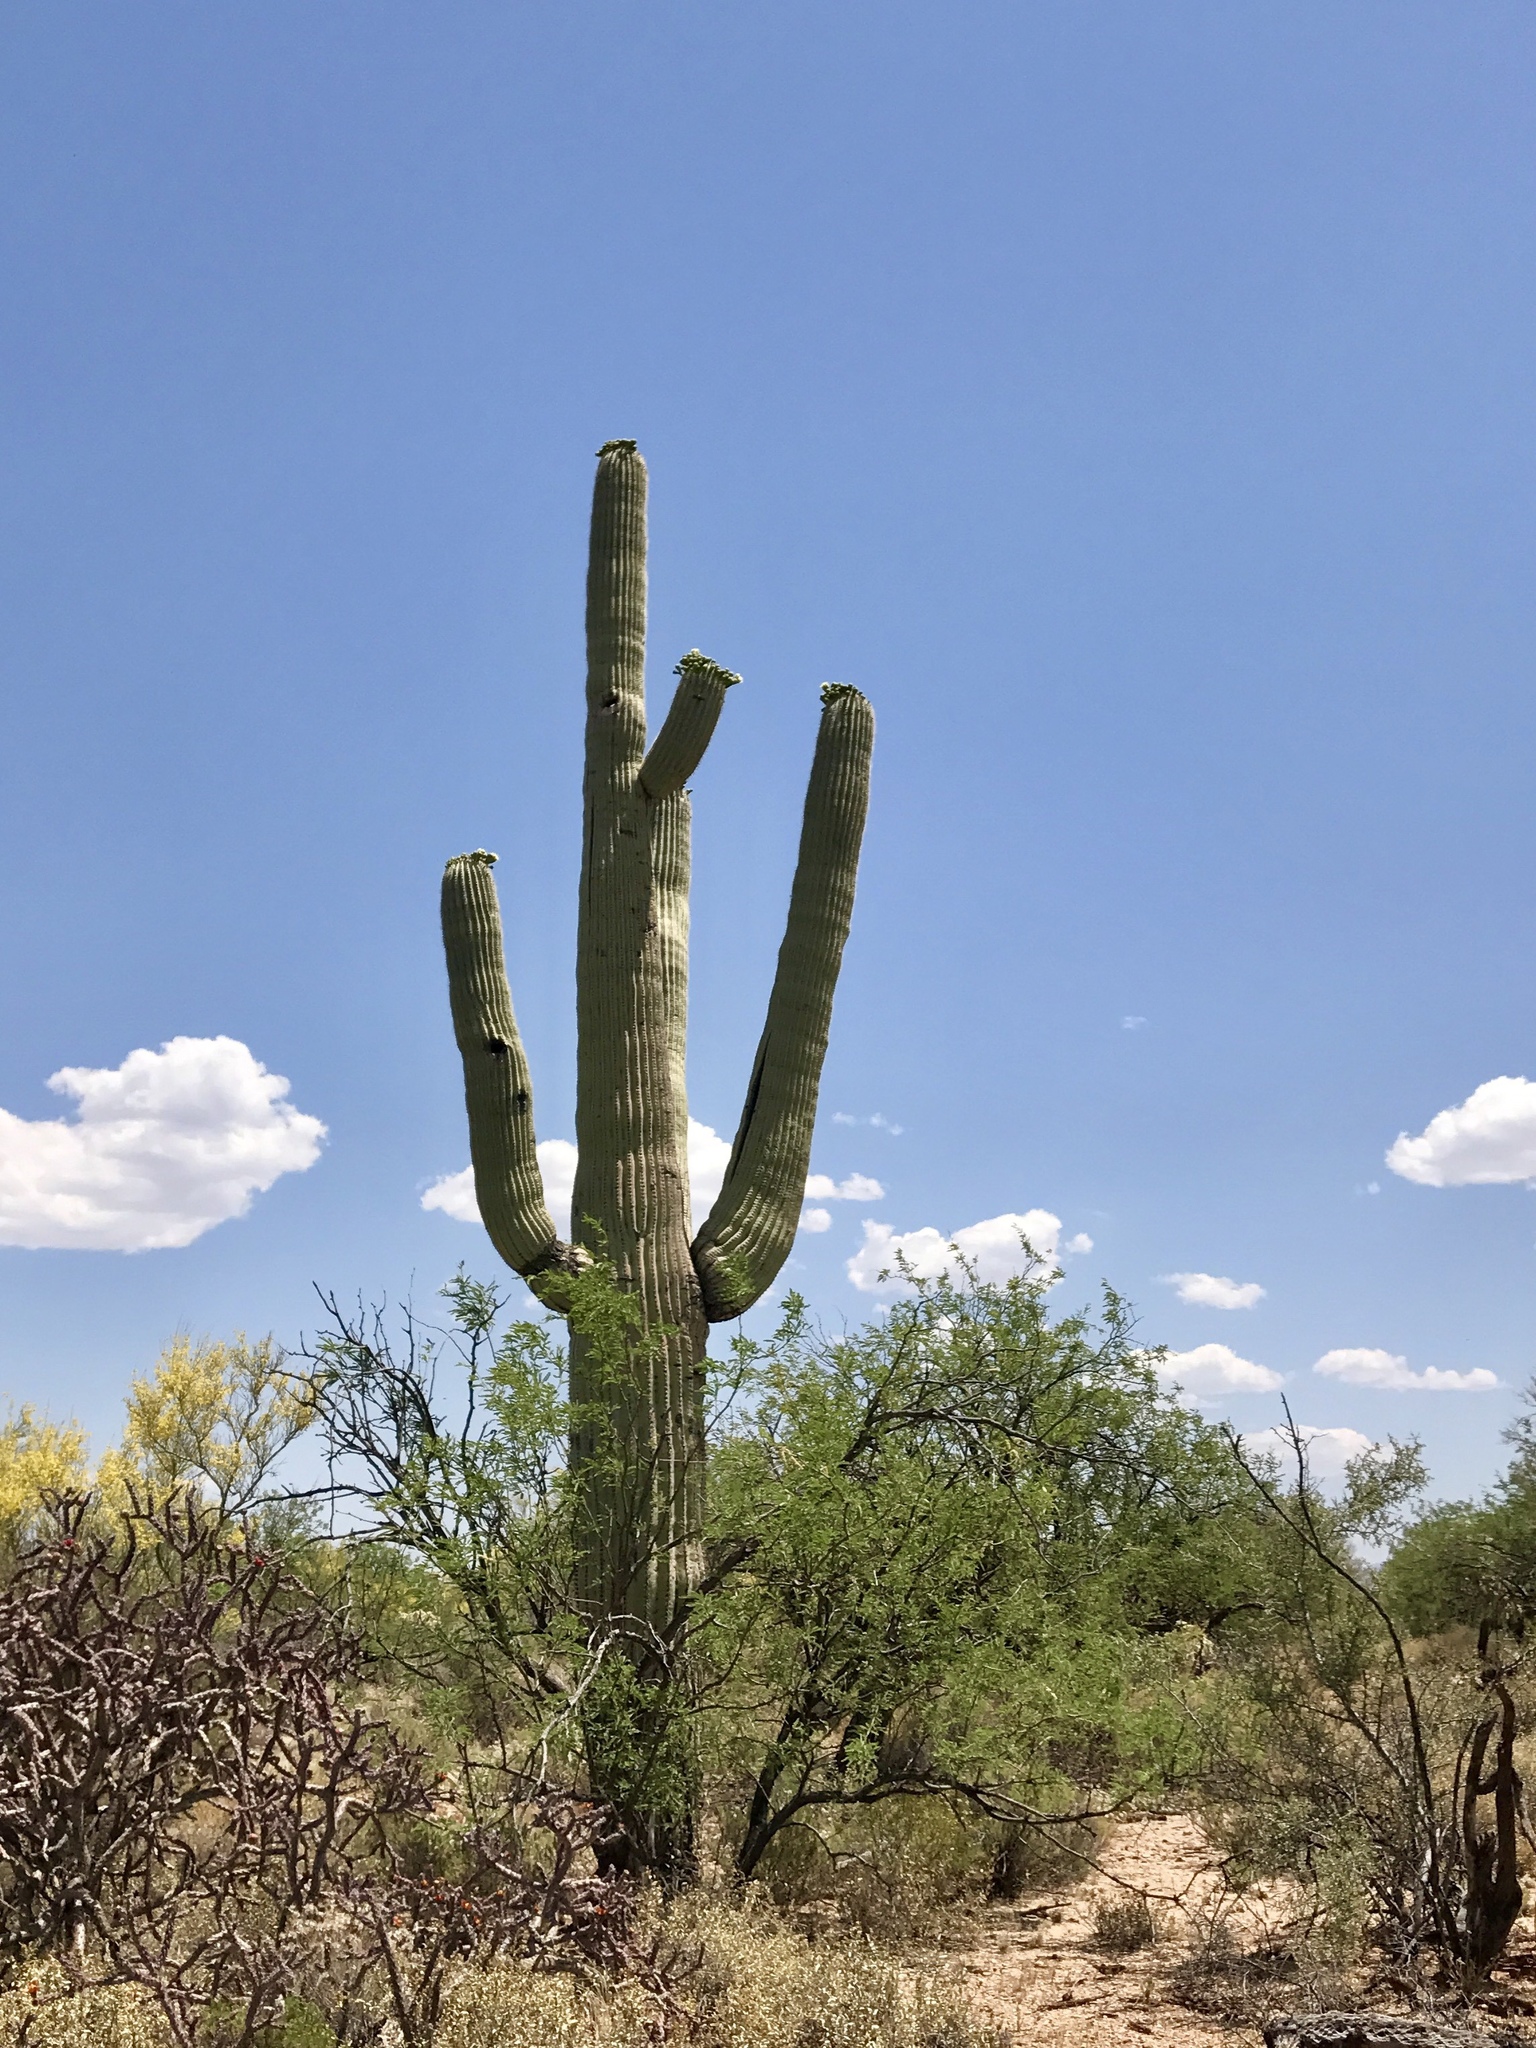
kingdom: Plantae
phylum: Tracheophyta
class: Magnoliopsida
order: Caryophyllales
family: Cactaceae
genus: Carnegiea
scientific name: Carnegiea gigantea
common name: Saguaro
